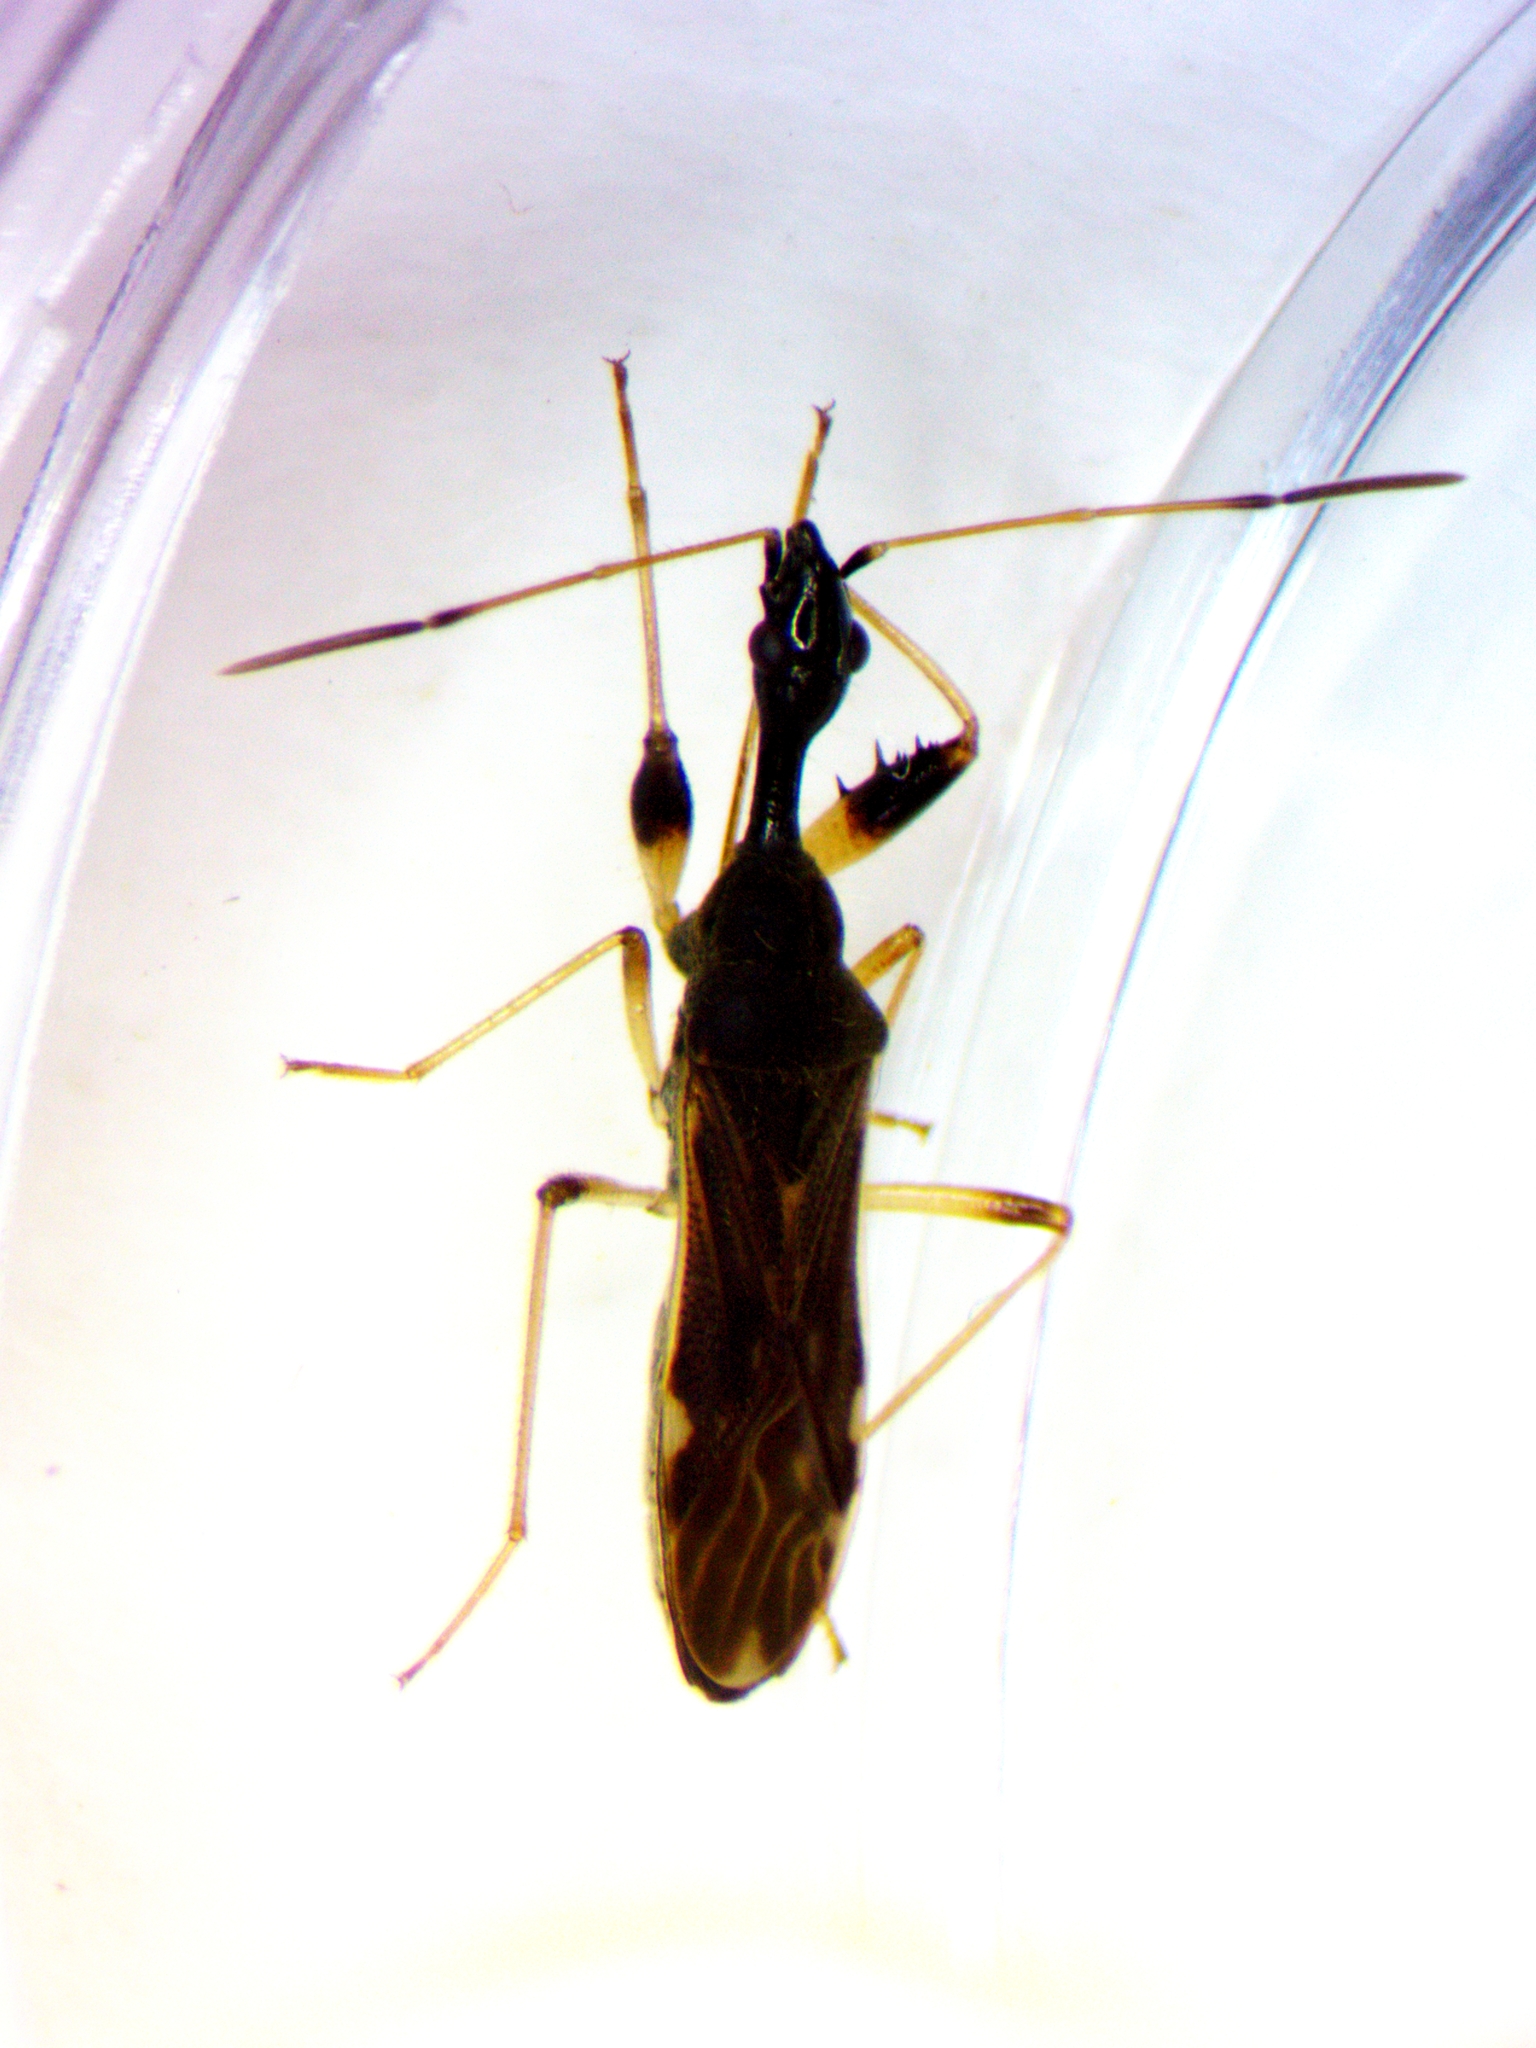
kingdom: Animalia
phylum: Arthropoda
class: Insecta
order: Hemiptera
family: Rhyparochromidae
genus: Myodocha
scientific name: Myodocha serripes
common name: Long-necked seed bug
